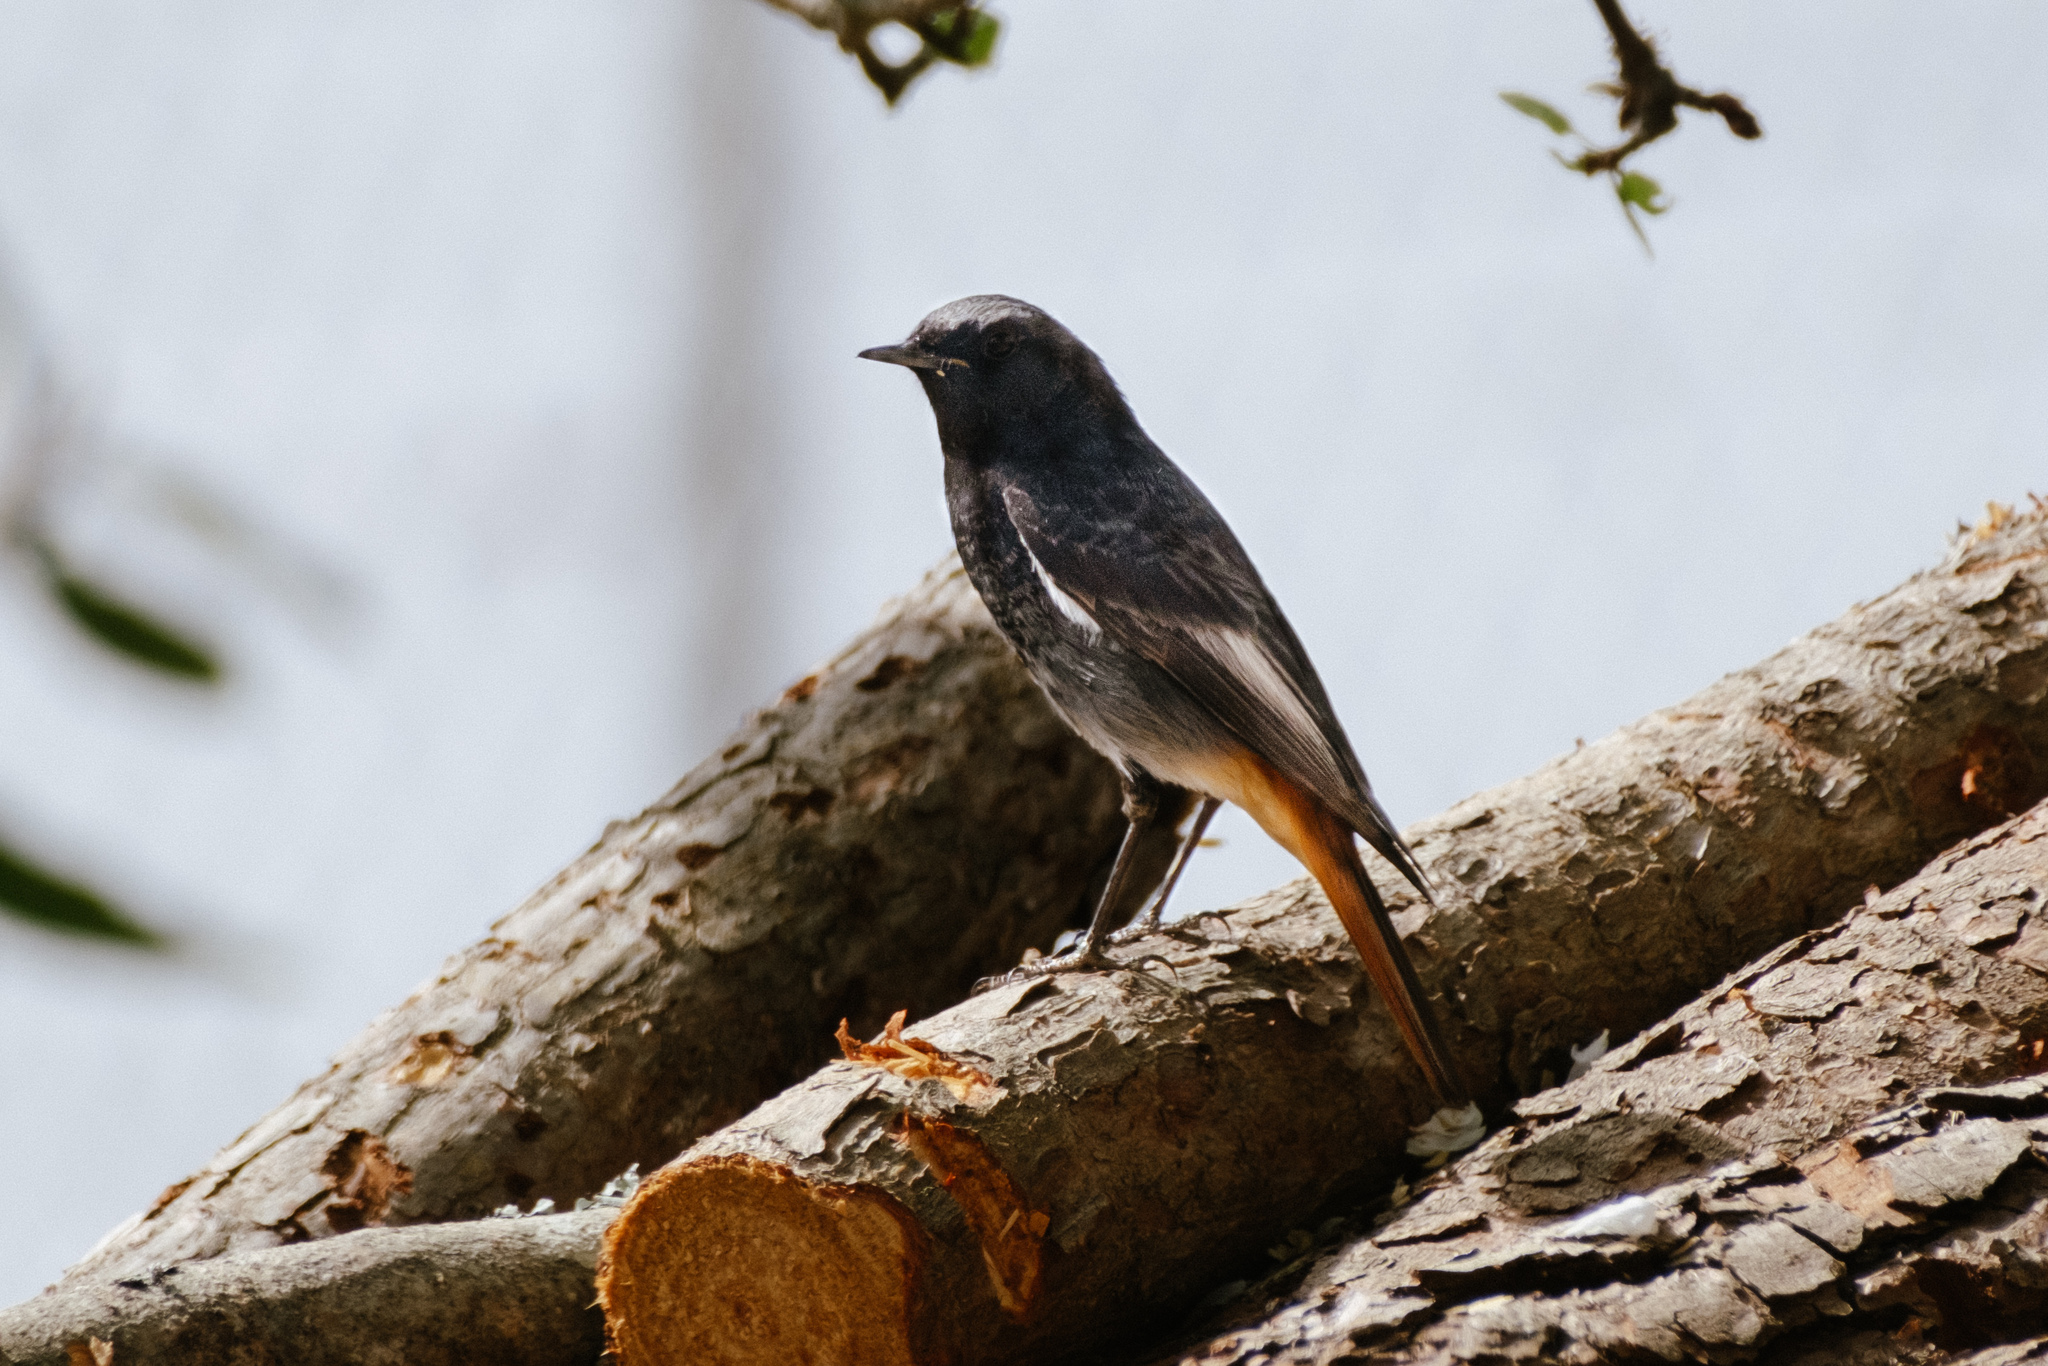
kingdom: Animalia
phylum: Chordata
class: Aves
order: Passeriformes
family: Muscicapidae
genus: Phoenicurus
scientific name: Phoenicurus ochruros
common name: Black redstart
